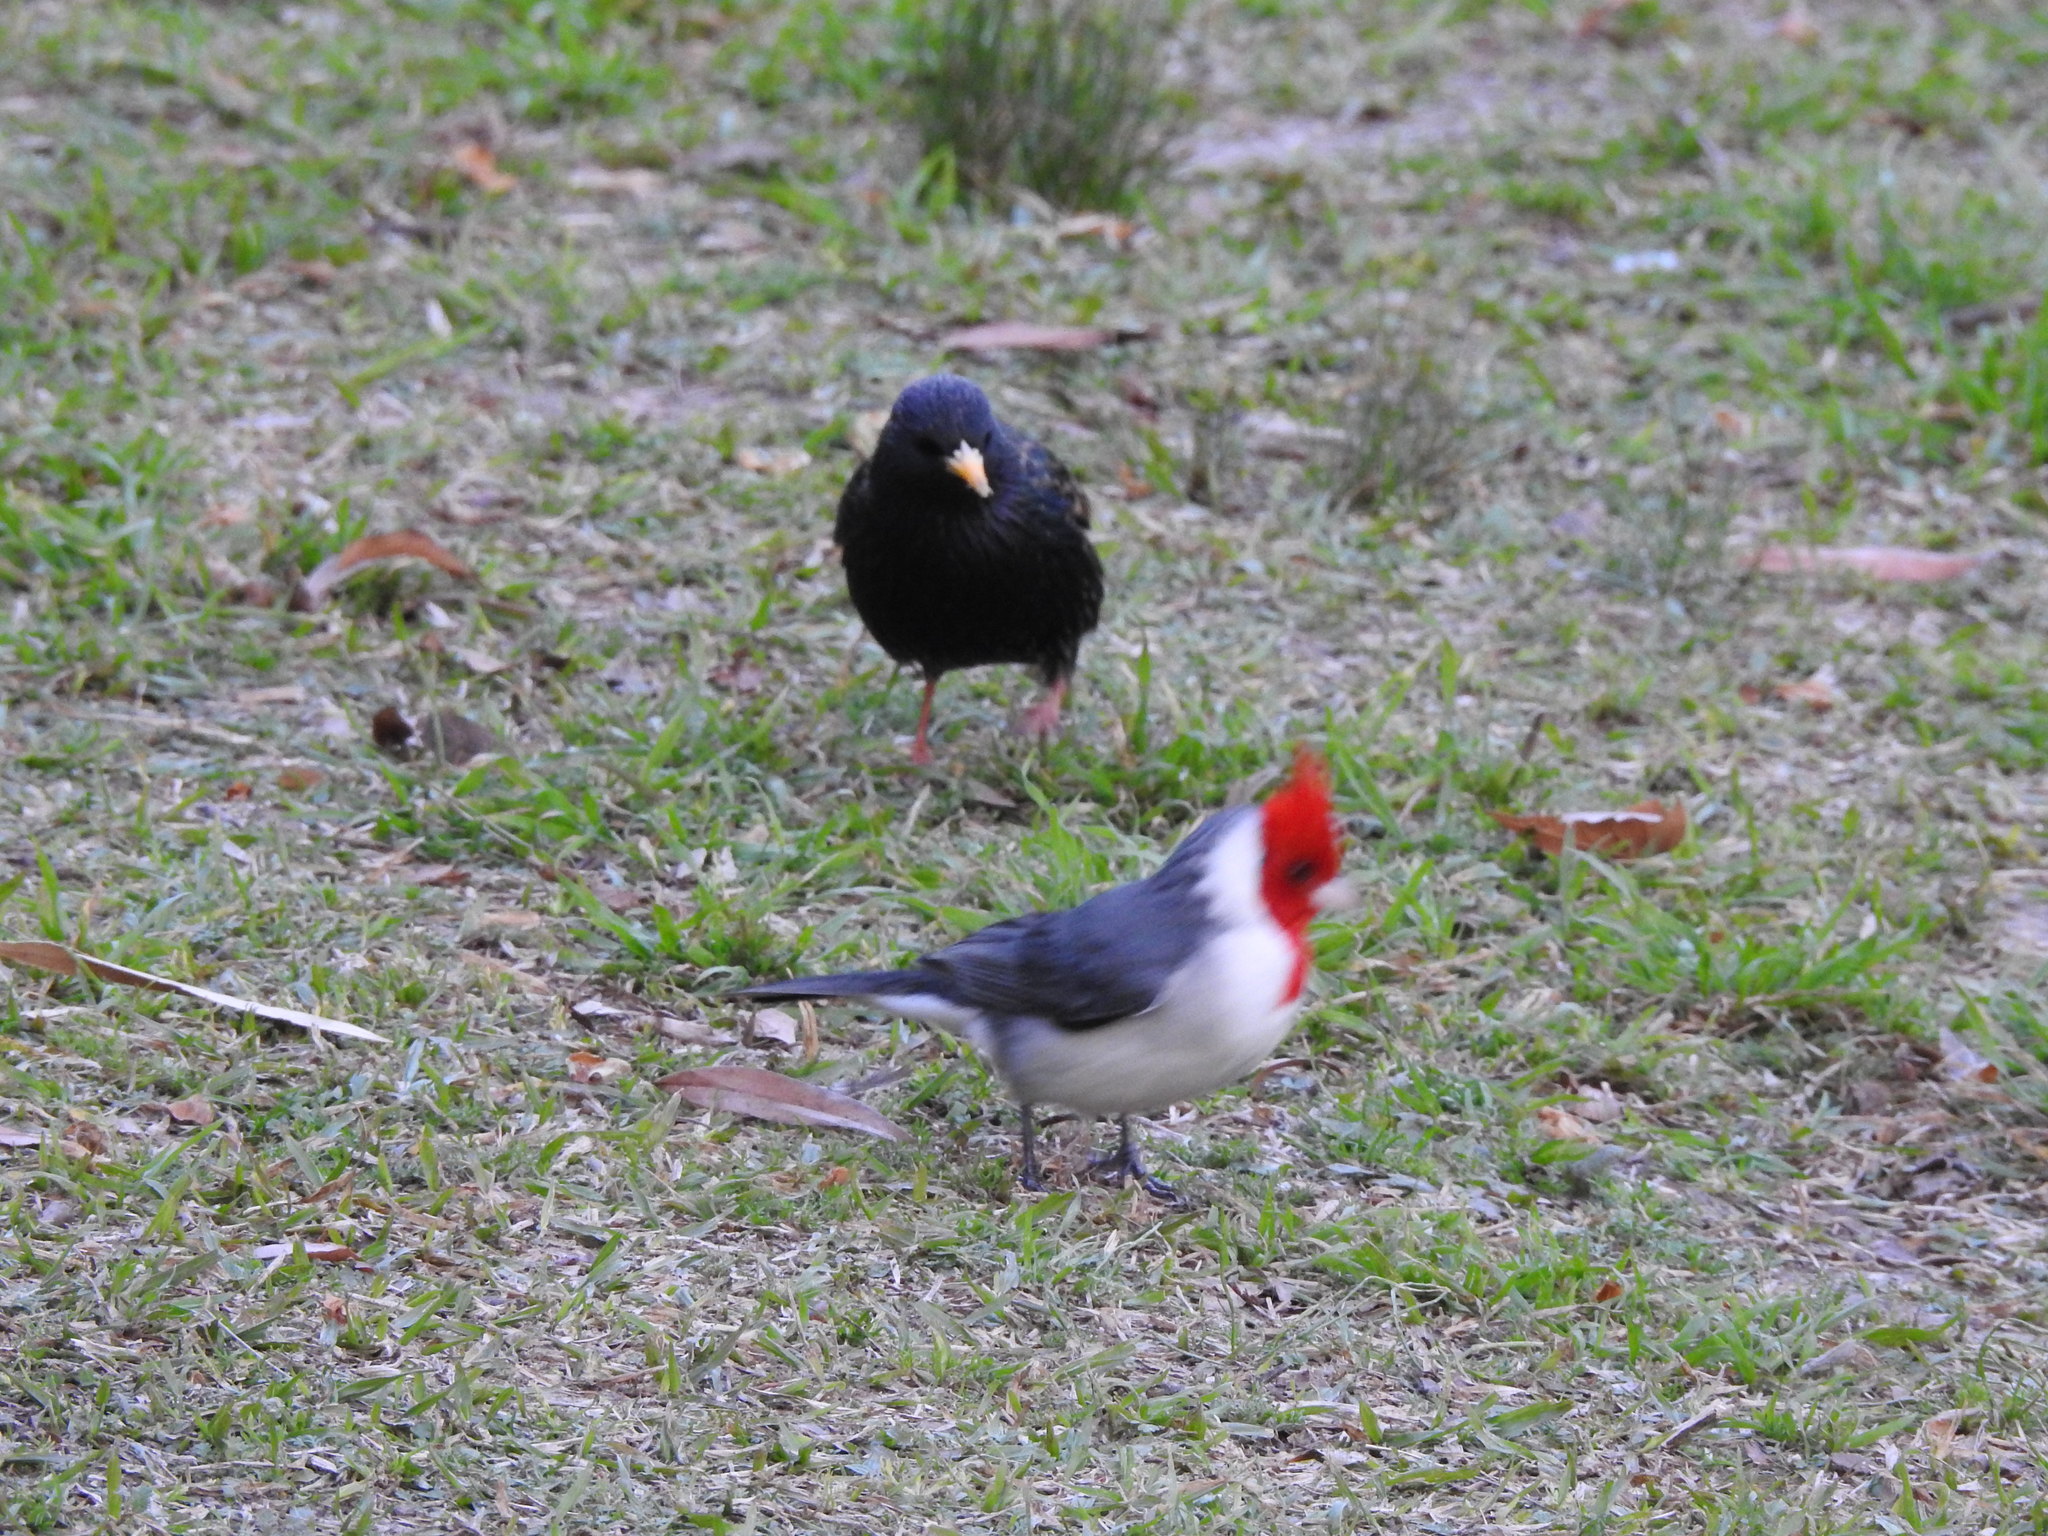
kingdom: Animalia
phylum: Chordata
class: Aves
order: Passeriformes
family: Thraupidae
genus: Paroaria
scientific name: Paroaria coronata
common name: Red-crested cardinal
